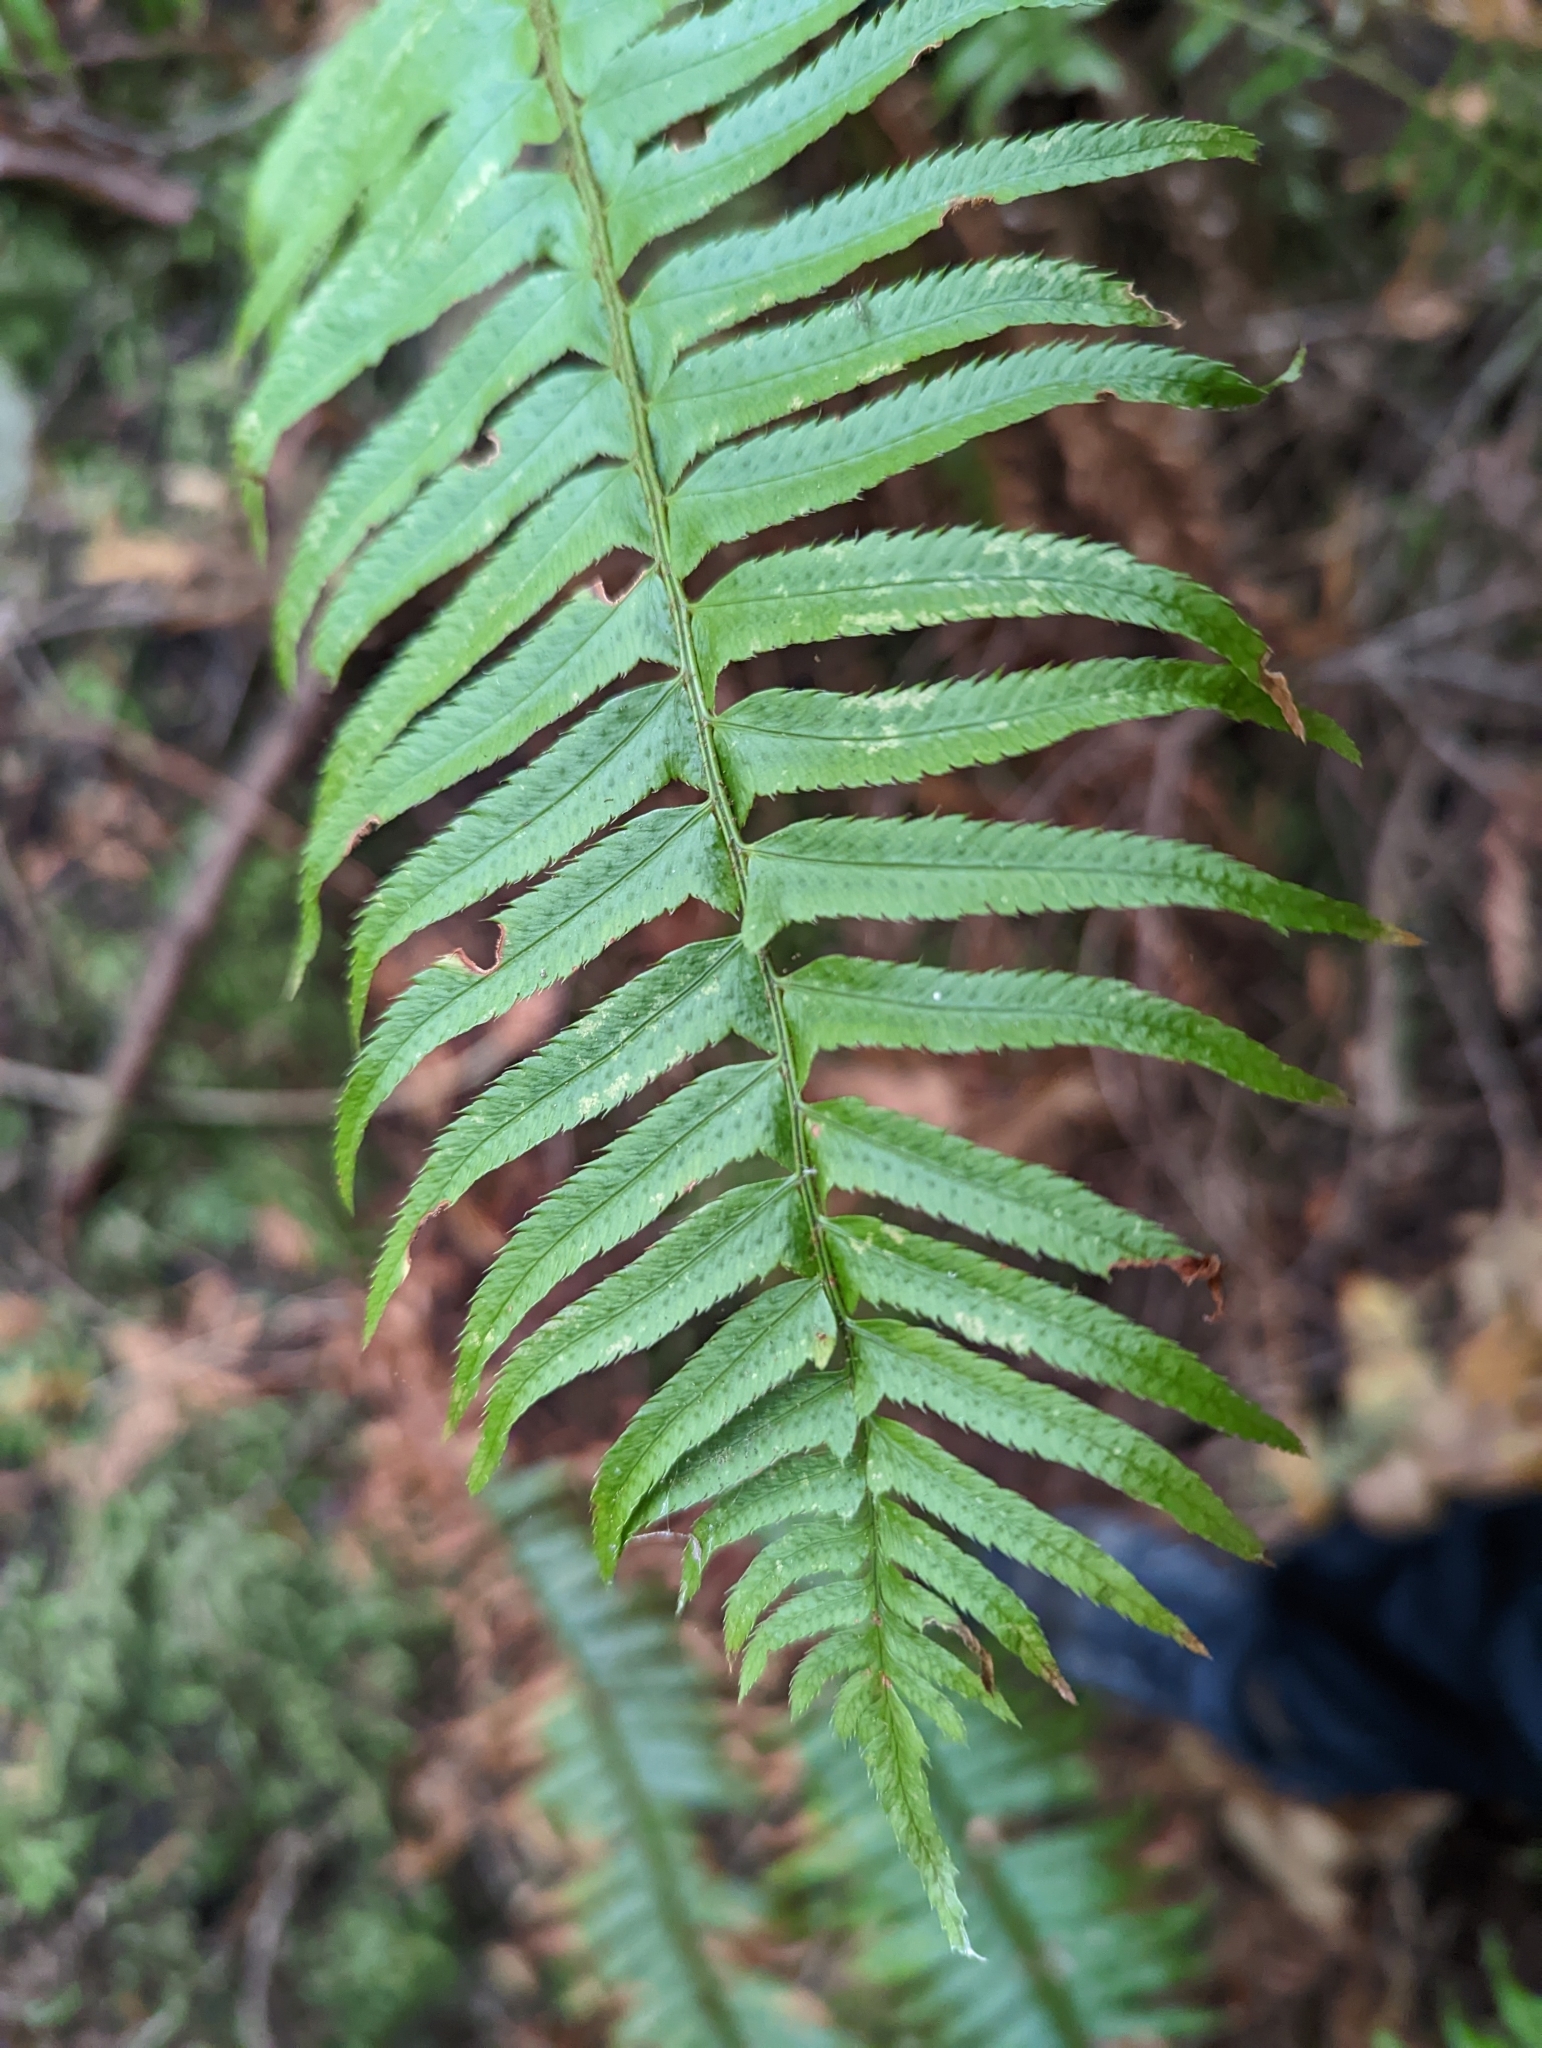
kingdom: Plantae
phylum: Tracheophyta
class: Polypodiopsida
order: Polypodiales
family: Dryopteridaceae
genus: Polystichum
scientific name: Polystichum munitum
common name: Western sword-fern
